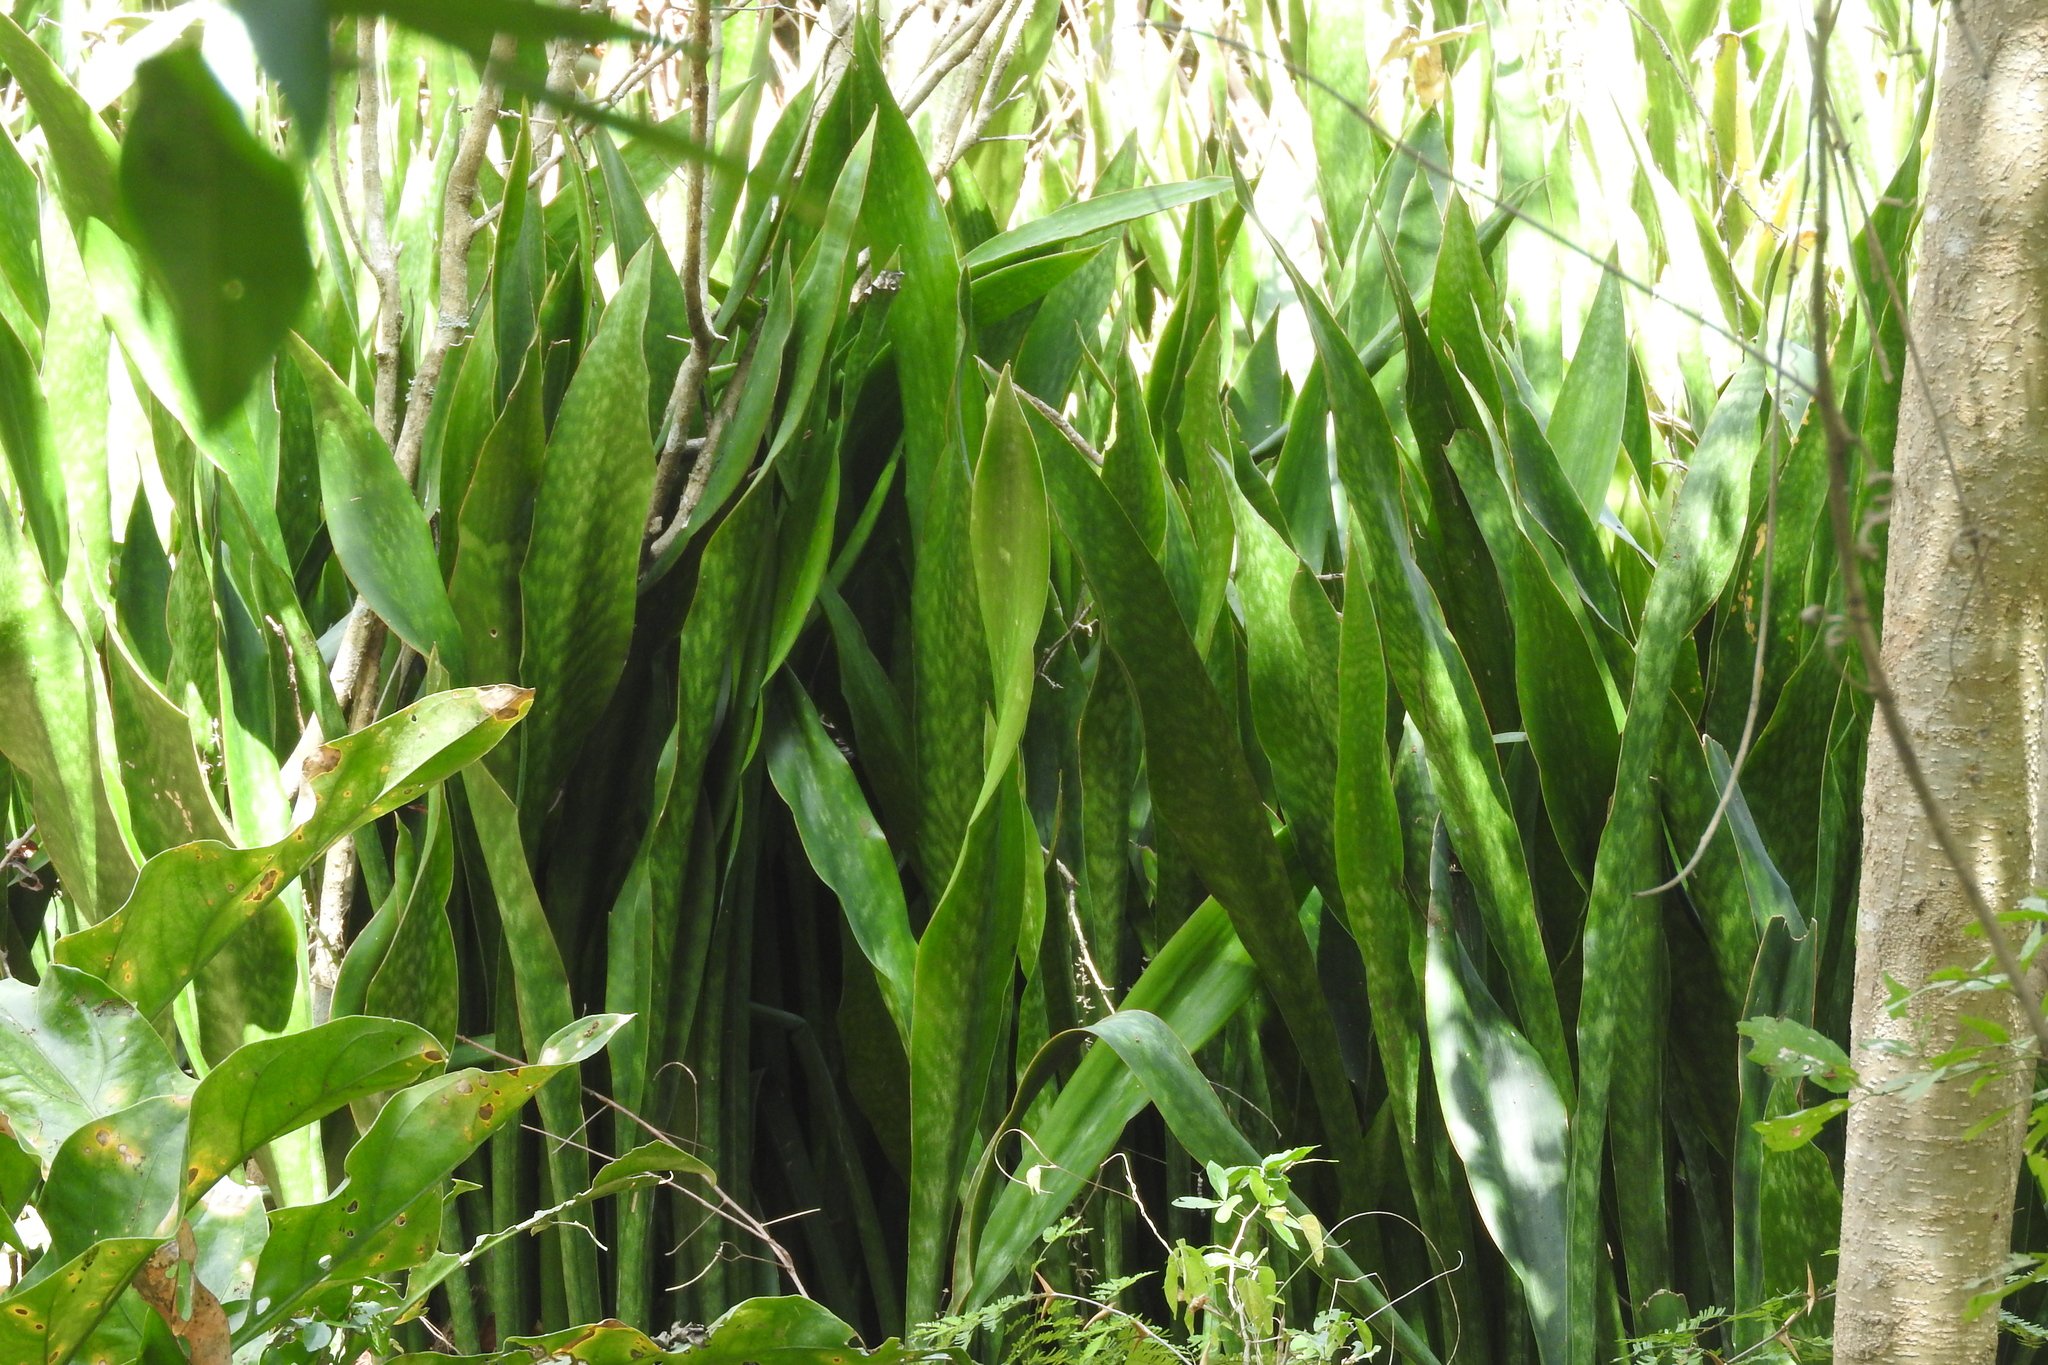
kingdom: Plantae
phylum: Tracheophyta
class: Liliopsida
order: Asparagales
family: Asparagaceae
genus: Dracaena
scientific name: Dracaena trifasciata
